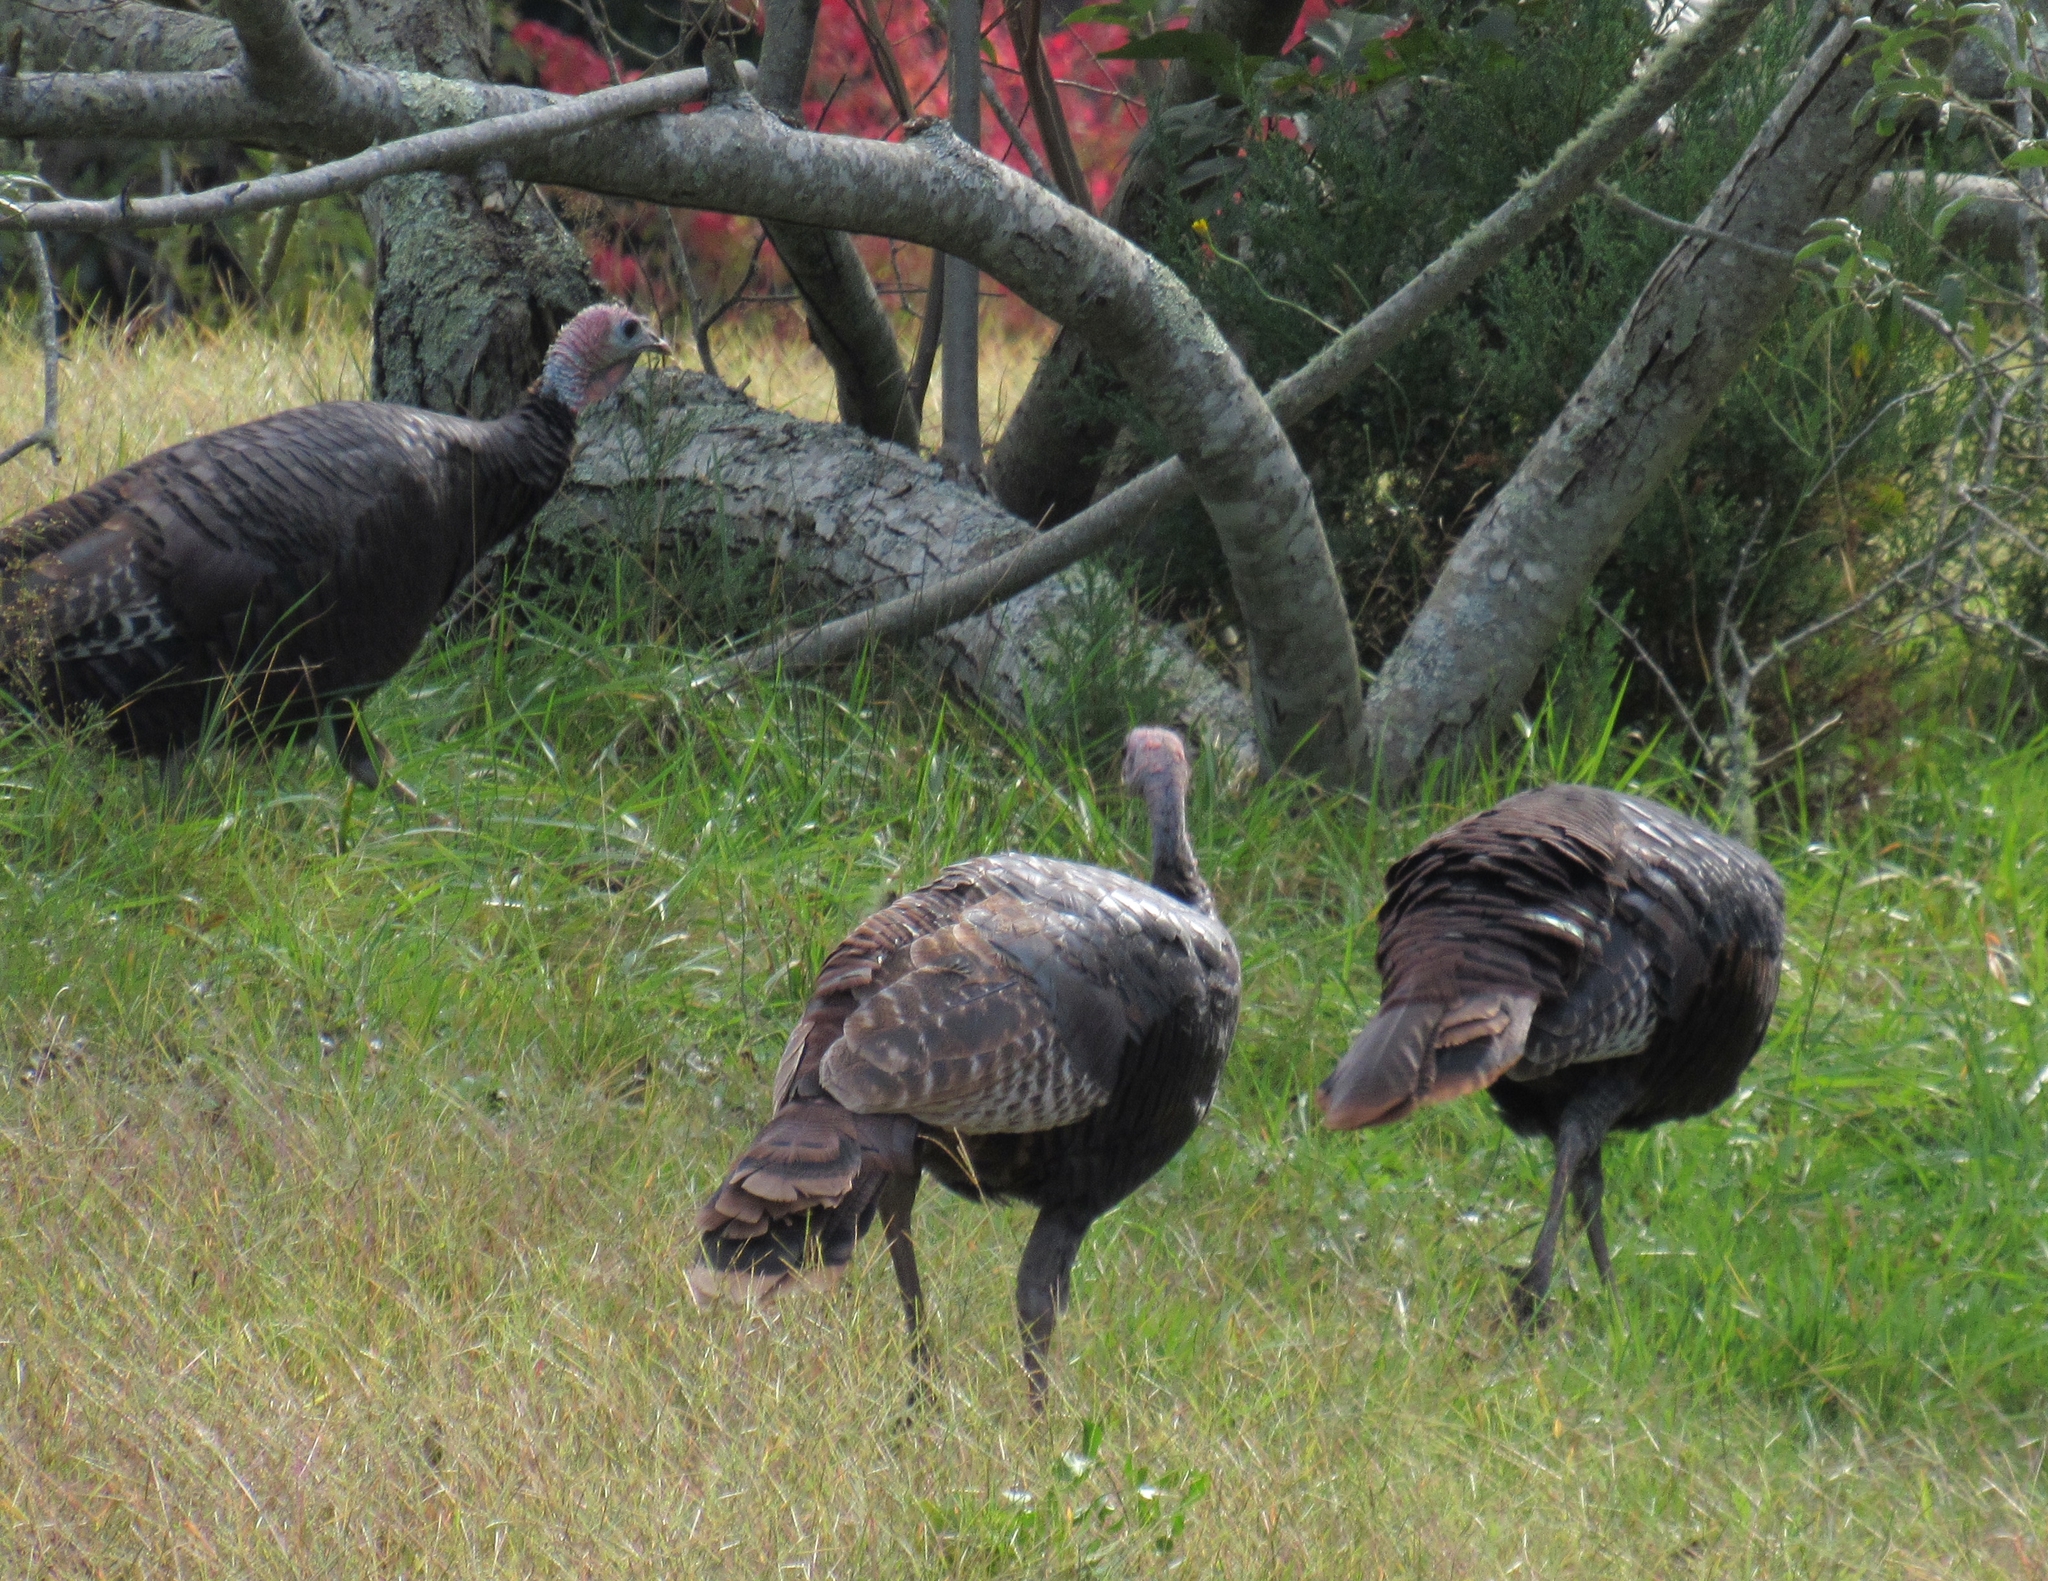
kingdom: Animalia
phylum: Chordata
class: Aves
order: Galliformes
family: Phasianidae
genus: Meleagris
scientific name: Meleagris gallopavo
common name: Wild turkey
